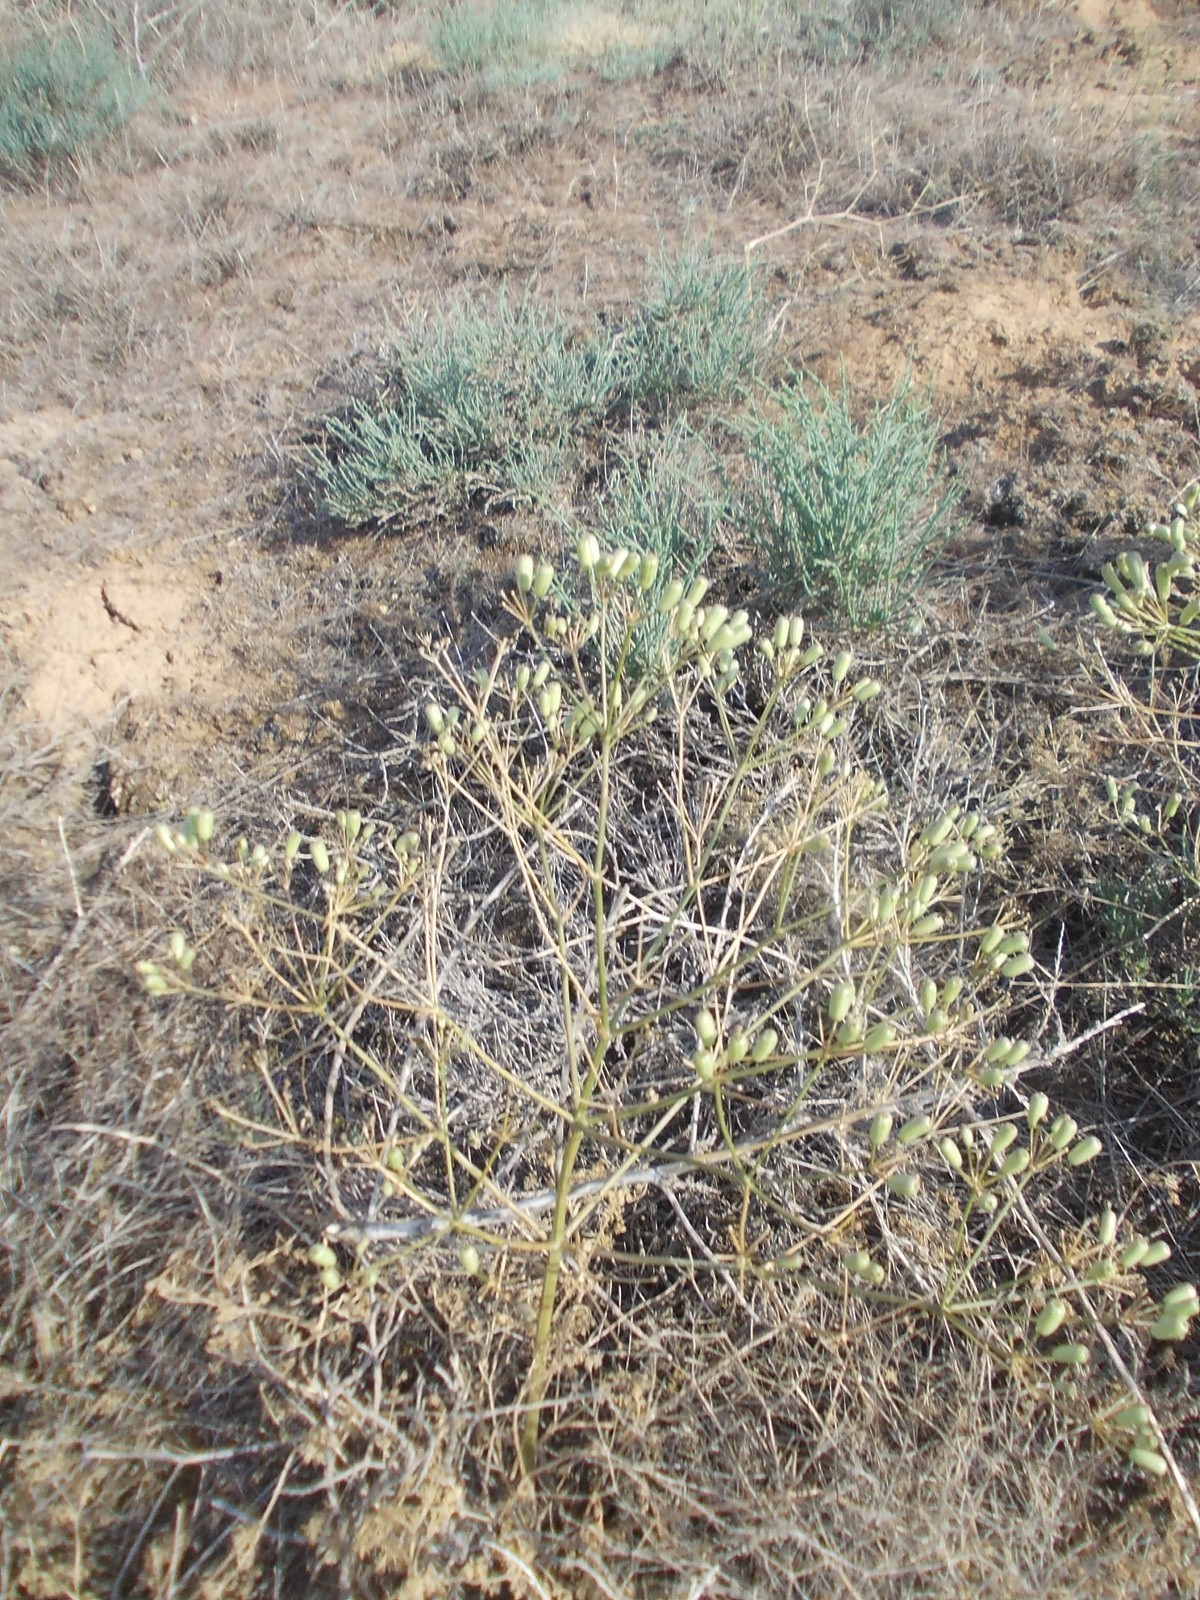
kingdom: Plantae
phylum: Tracheophyta
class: Magnoliopsida
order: Apiales
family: Apiaceae
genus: Prangos
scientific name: Prangos odontalgica
